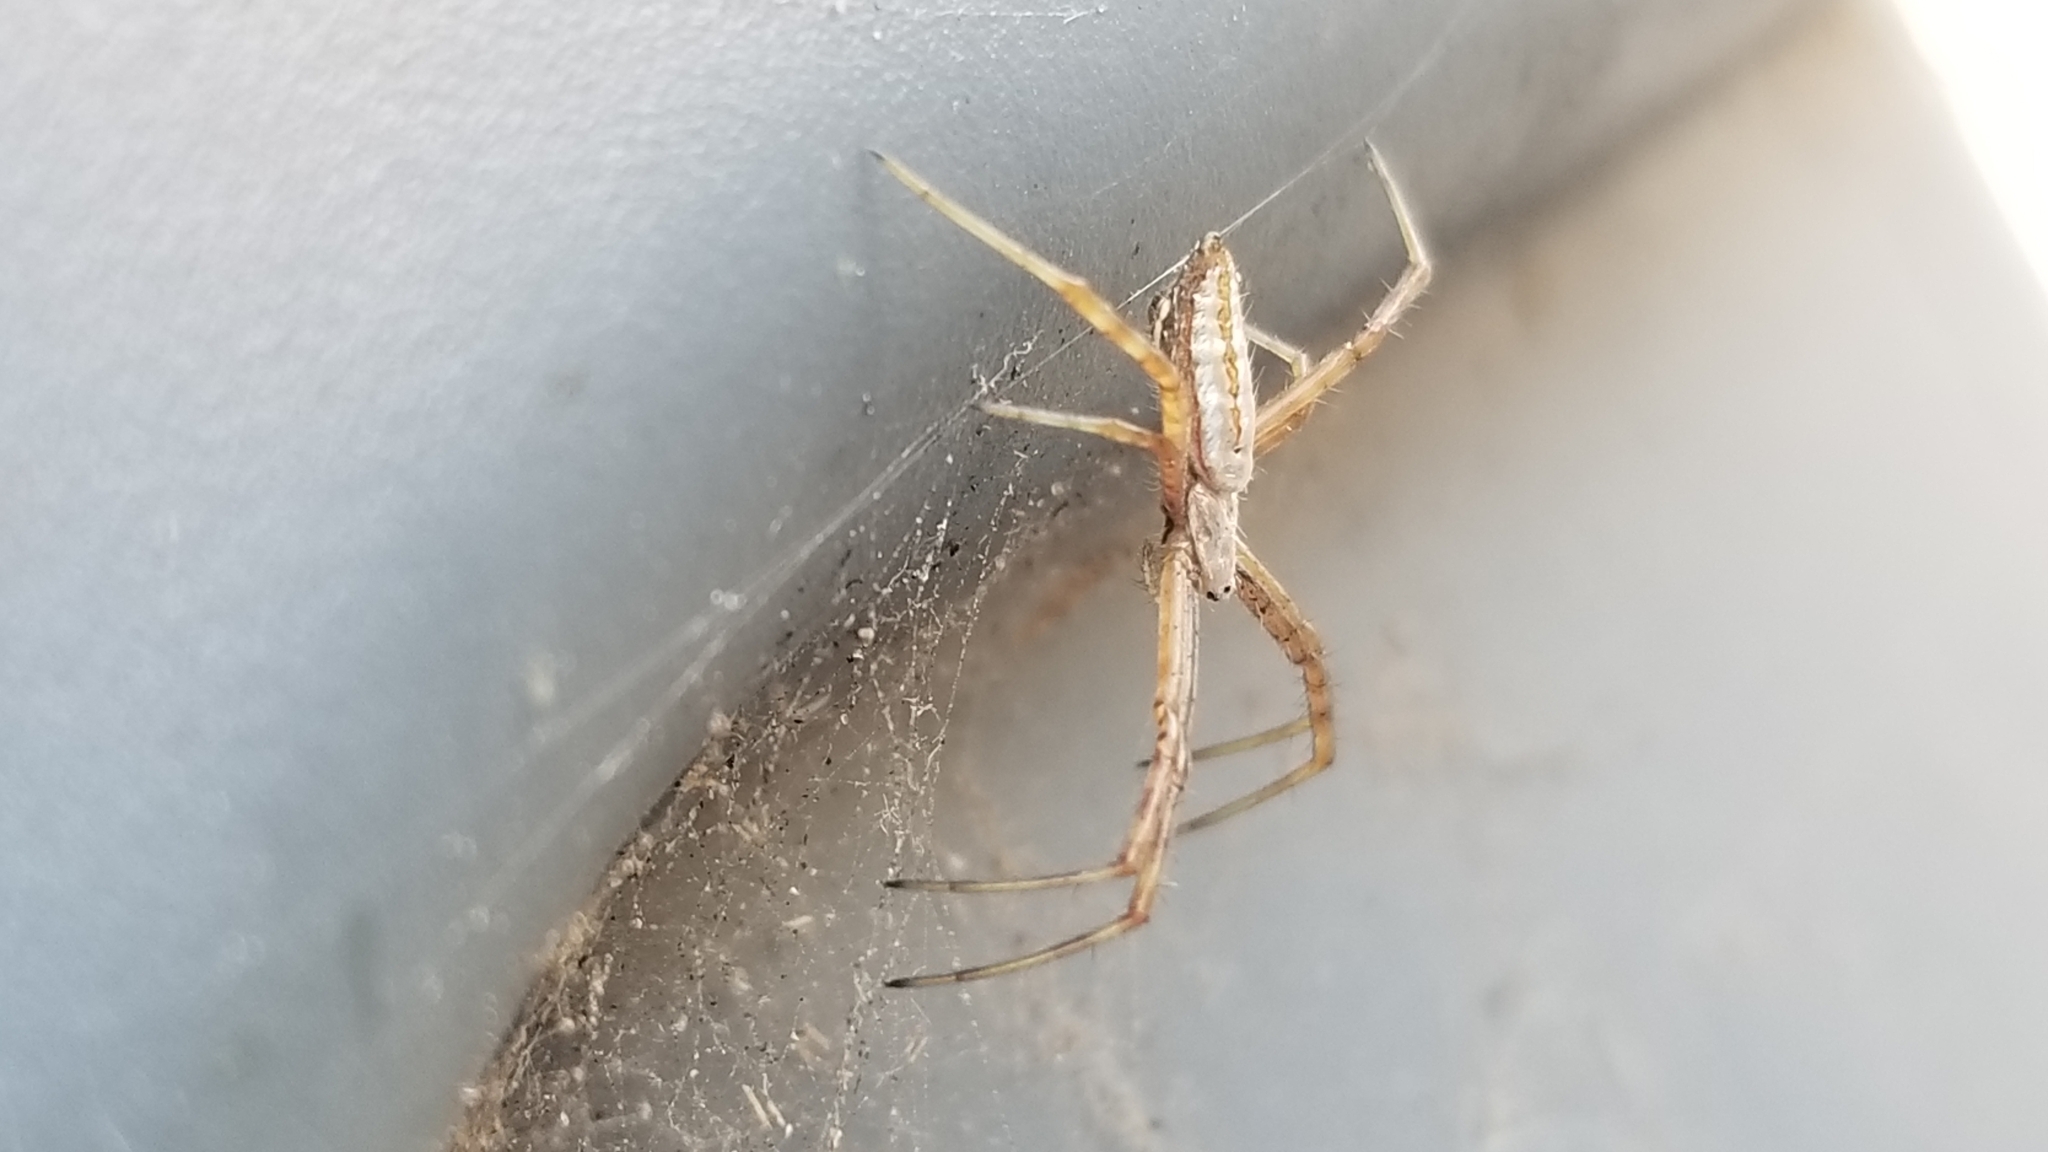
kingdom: Animalia
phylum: Arthropoda
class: Arachnida
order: Araneae
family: Araneidae
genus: Argiope
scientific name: Argiope trifasciata
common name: Banded garden spider
